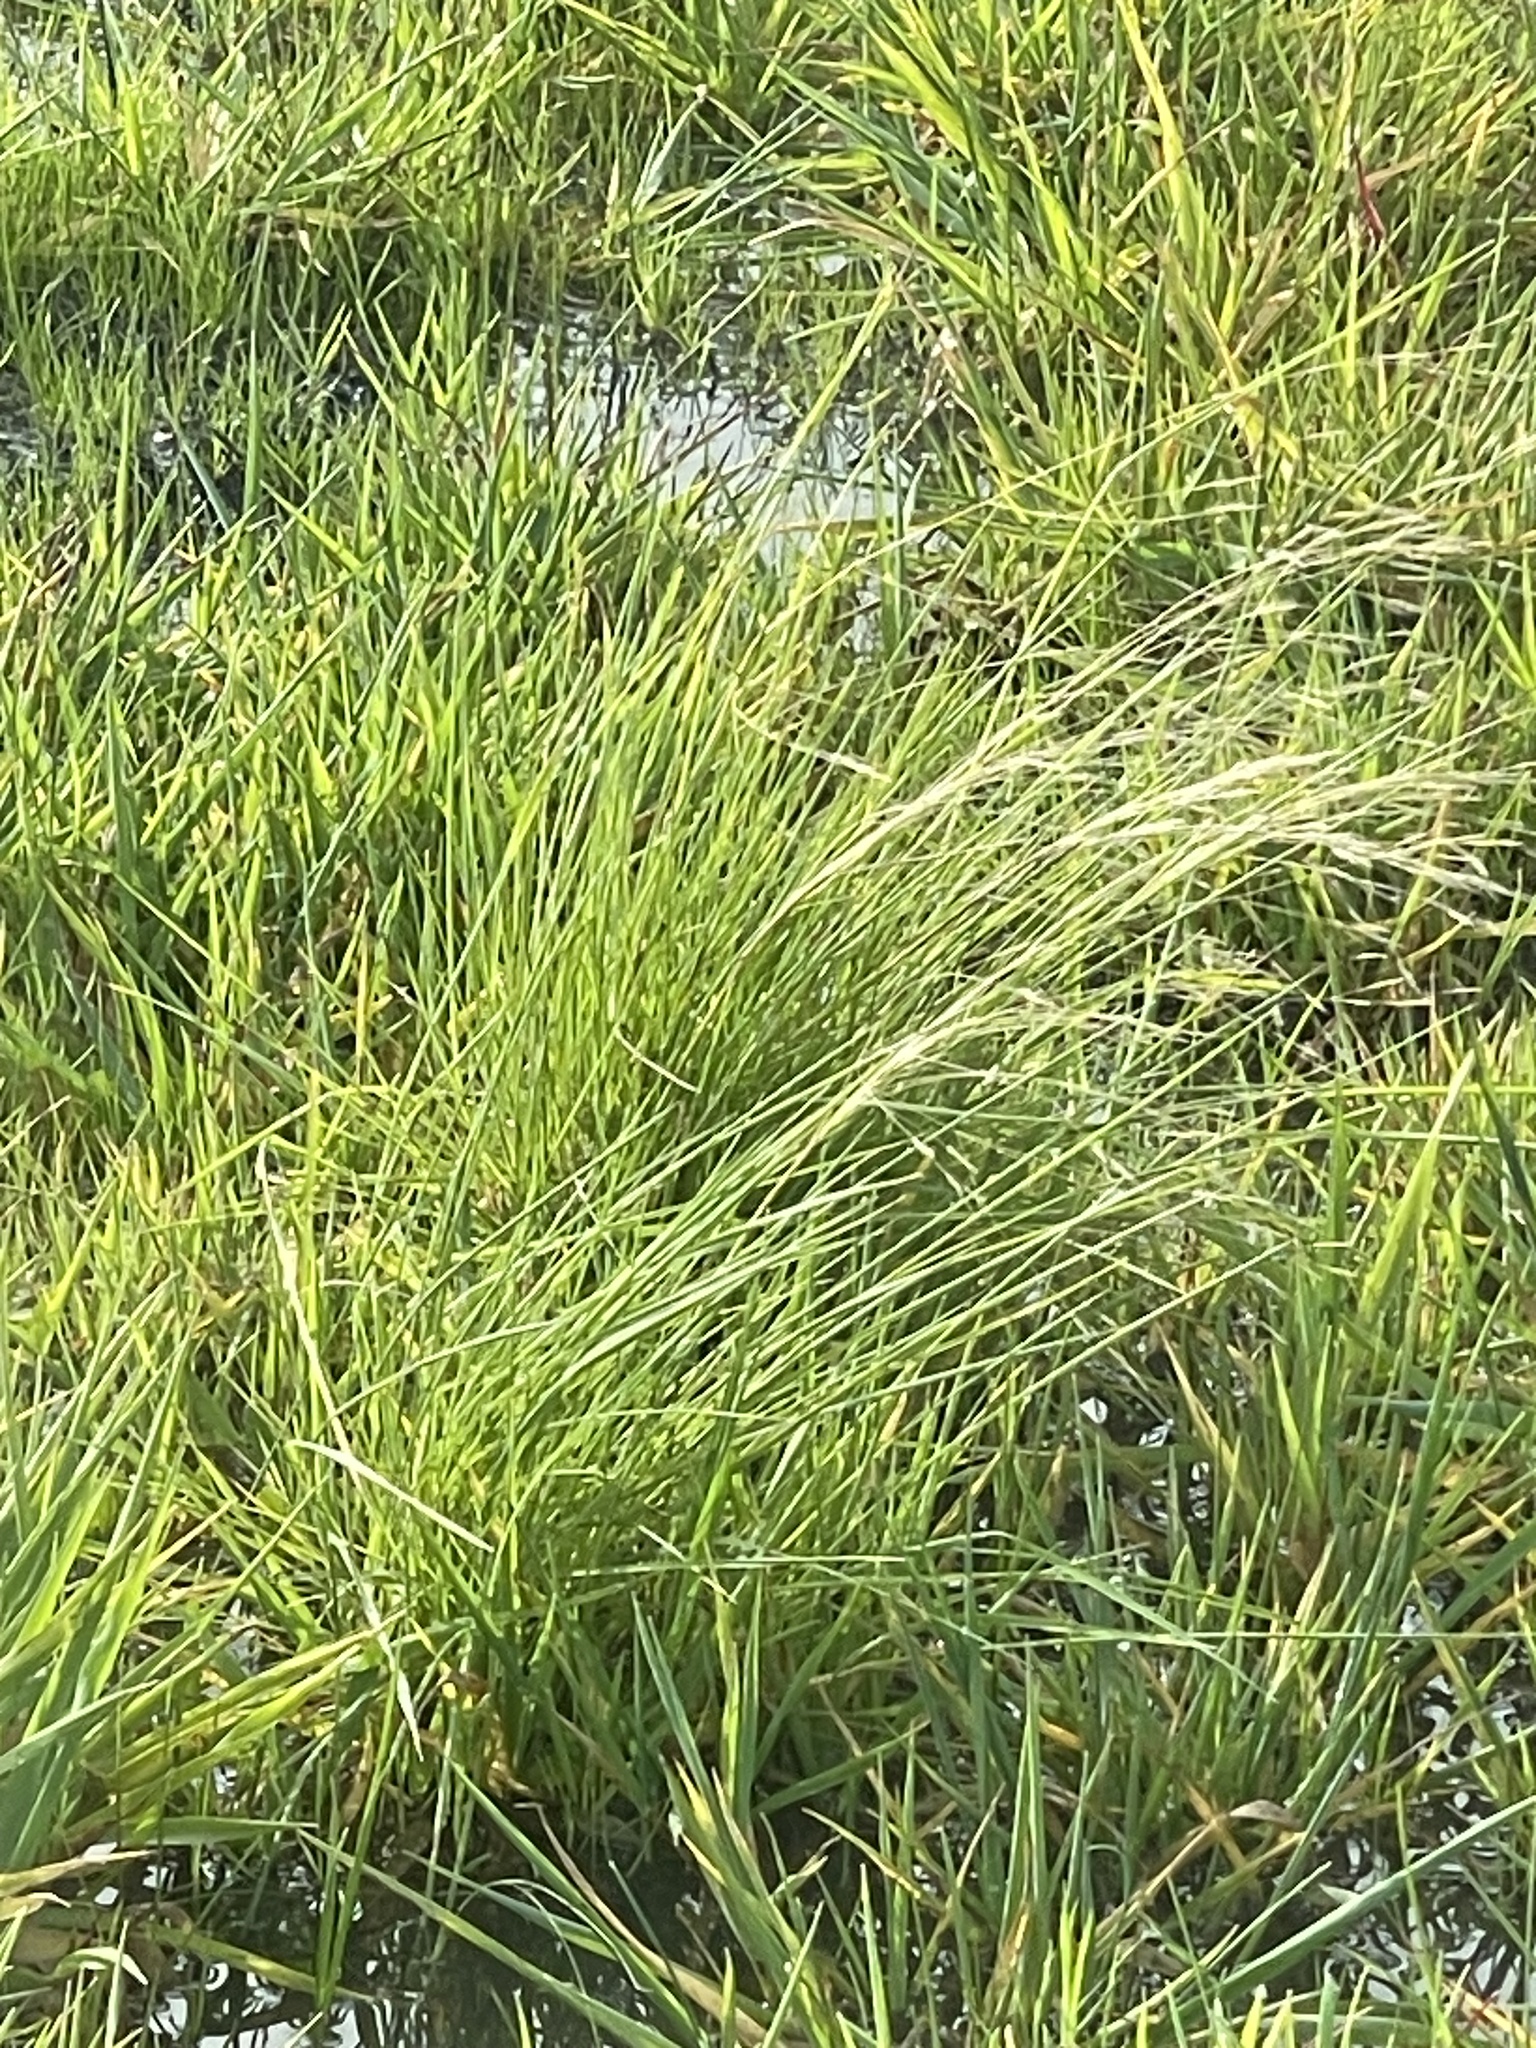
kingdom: Plantae
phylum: Tracheophyta
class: Liliopsida
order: Poales
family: Poaceae
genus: Lachnagrostis
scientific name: Lachnagrostis filiformis
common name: Bentgrass
